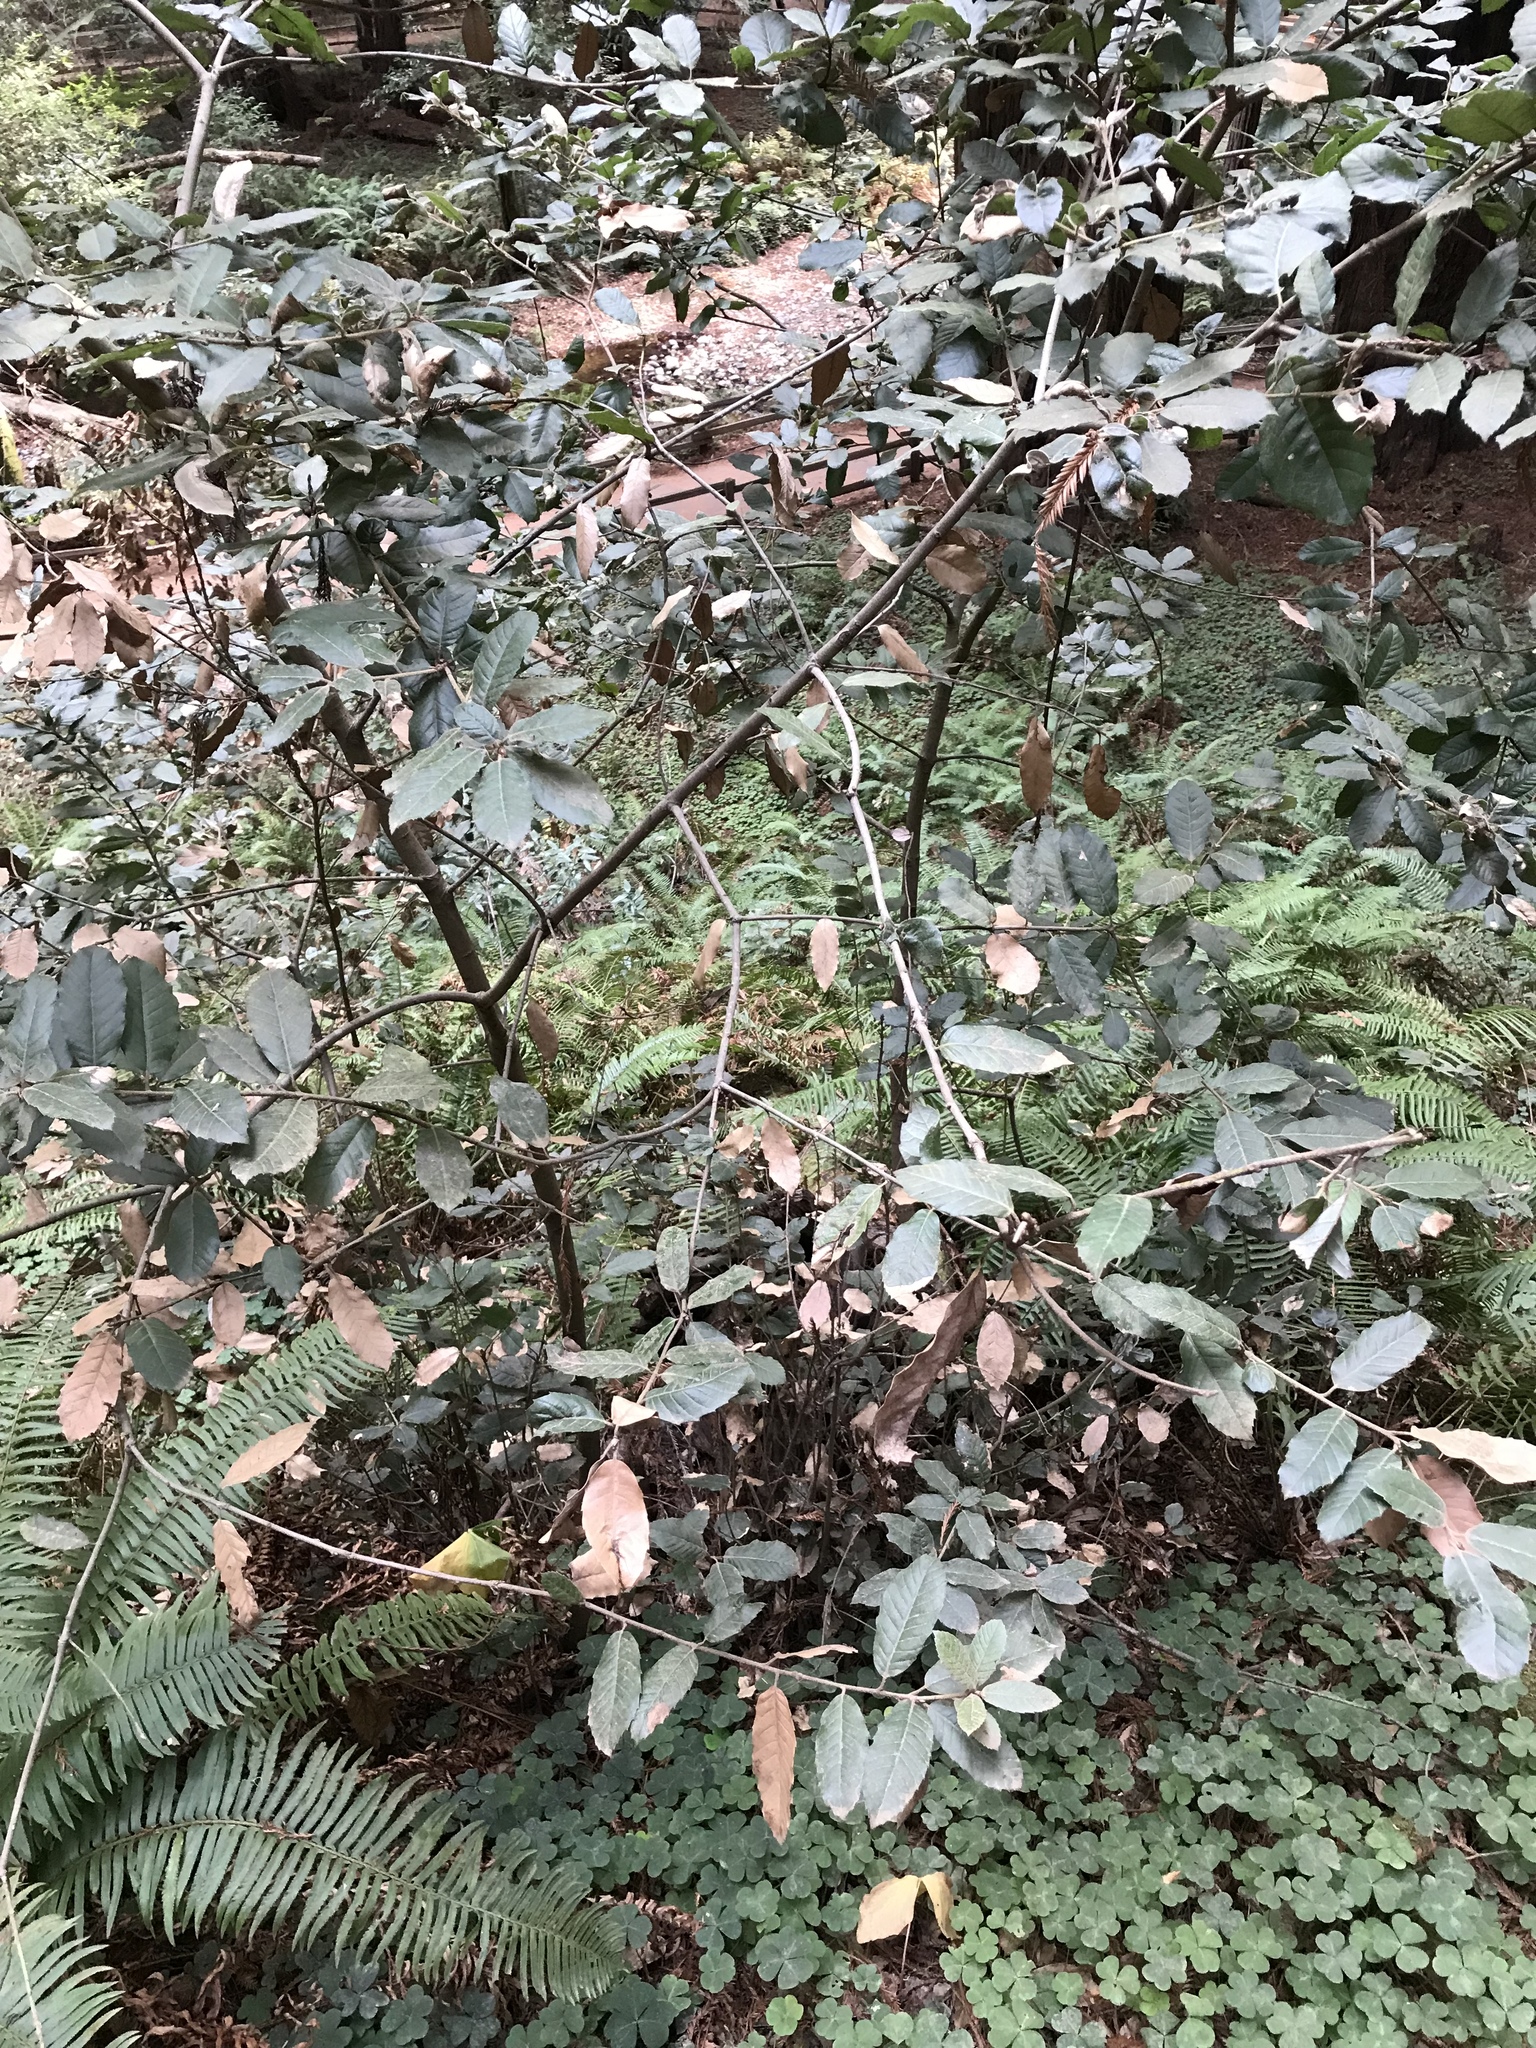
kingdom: Plantae
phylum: Tracheophyta
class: Magnoliopsida
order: Fagales
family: Fagaceae
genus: Notholithocarpus
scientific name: Notholithocarpus densiflorus
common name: Tan bark oak
